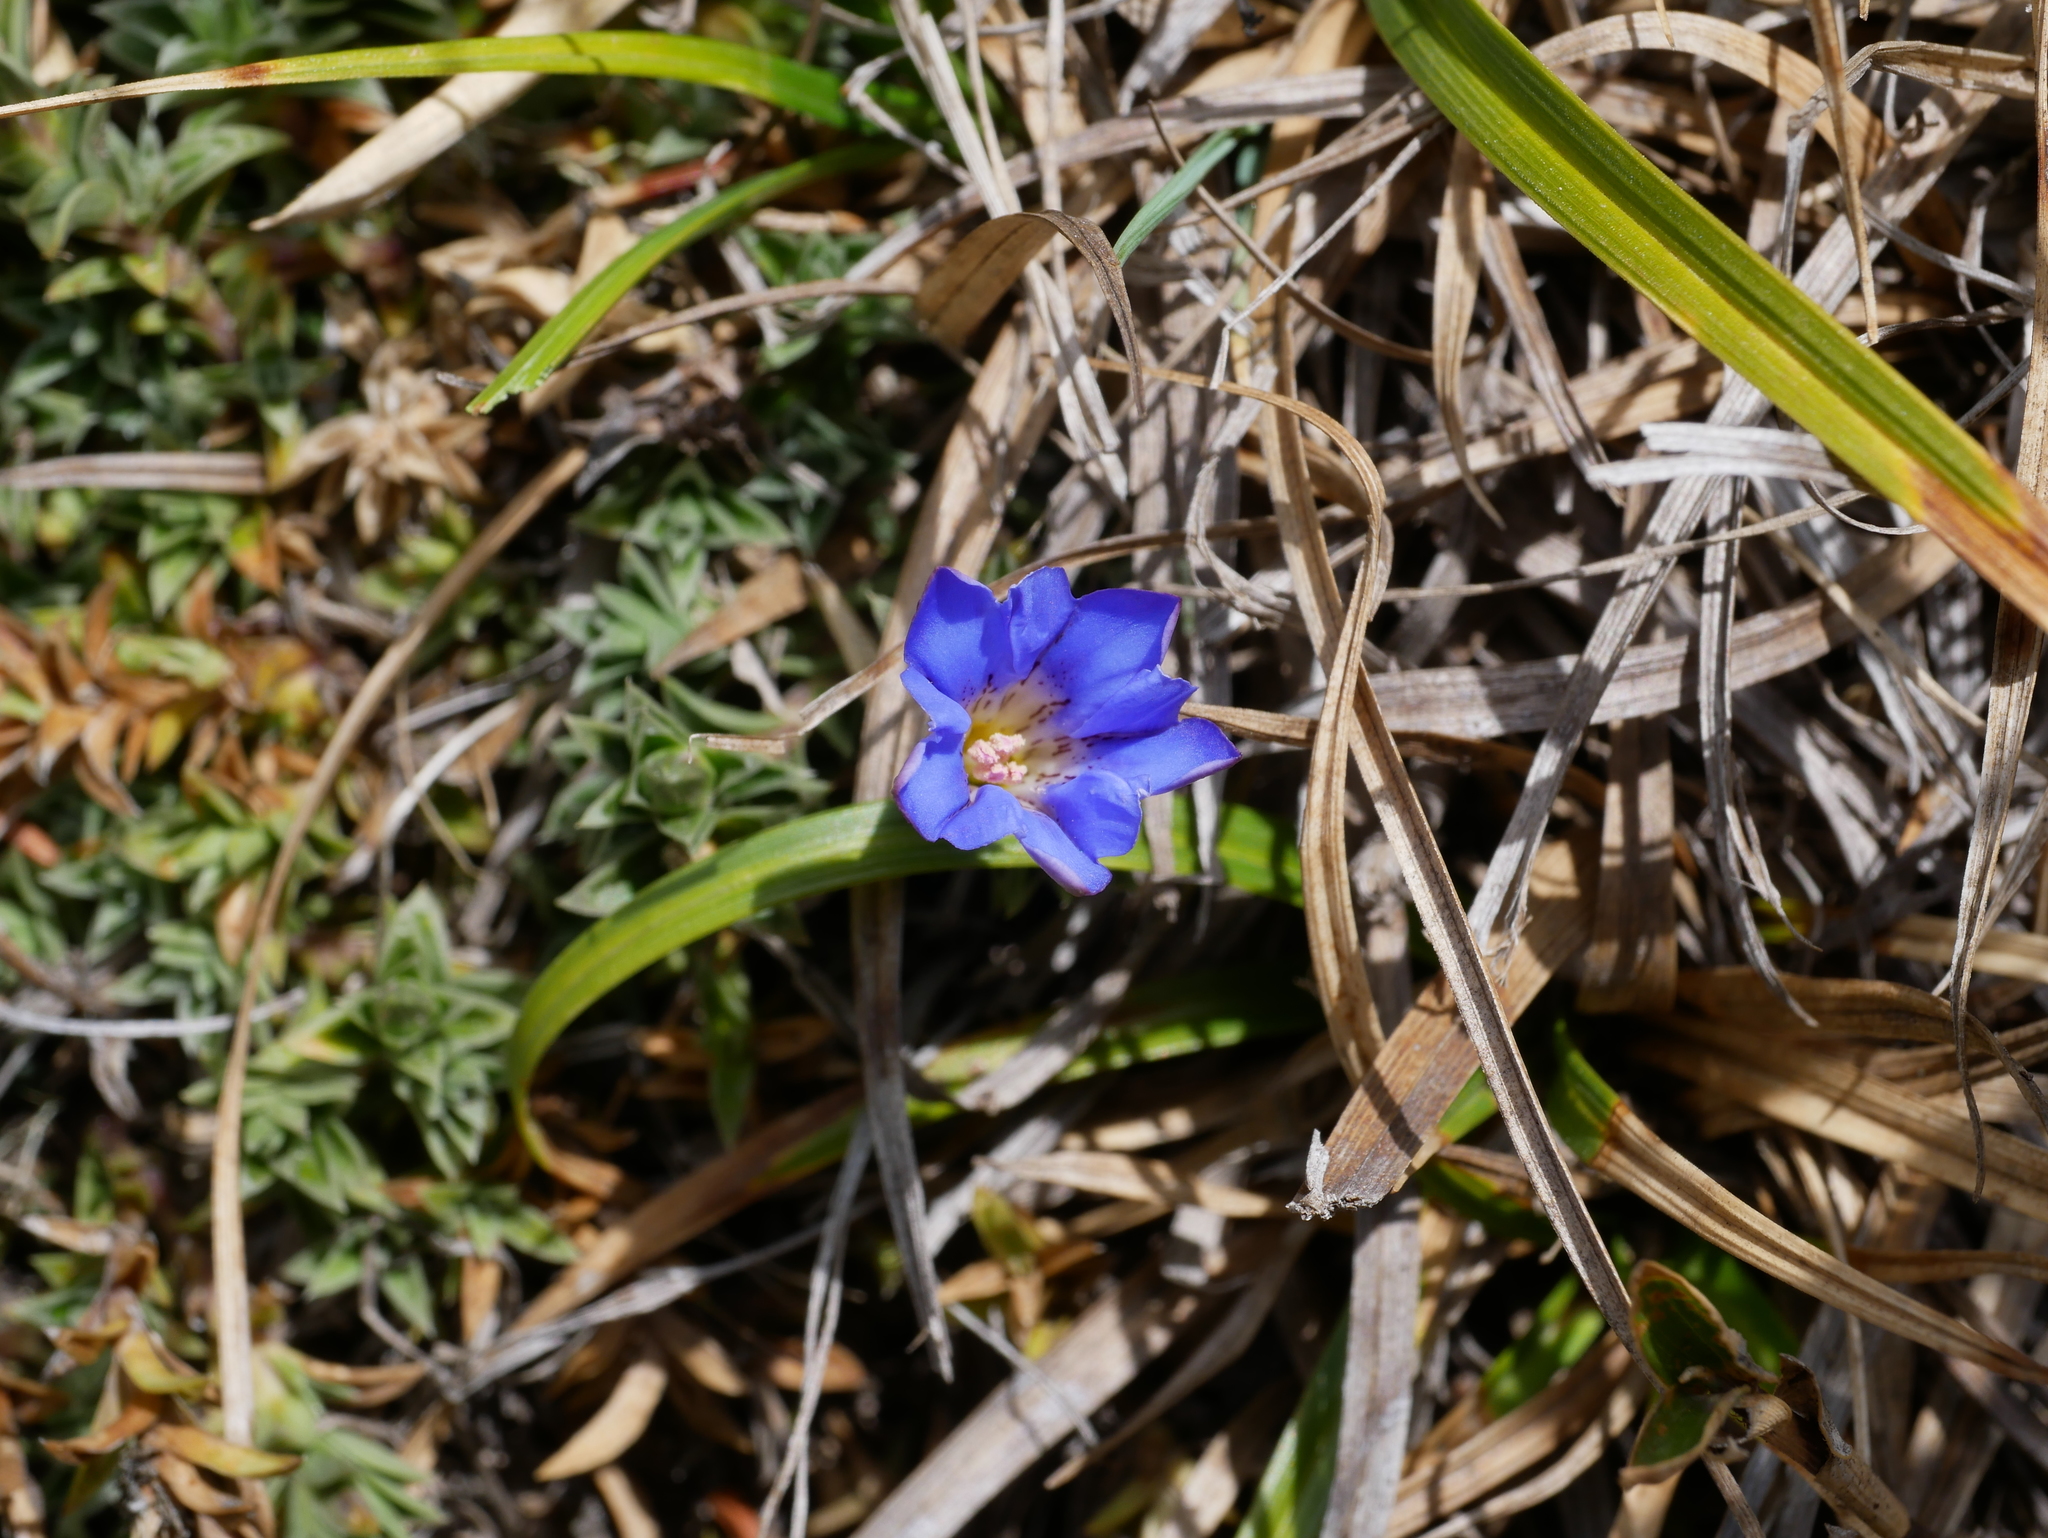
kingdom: Plantae
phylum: Tracheophyta
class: Magnoliopsida
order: Gentianales
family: Gentianaceae
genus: Gentiana
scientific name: Gentiana arisanensis
